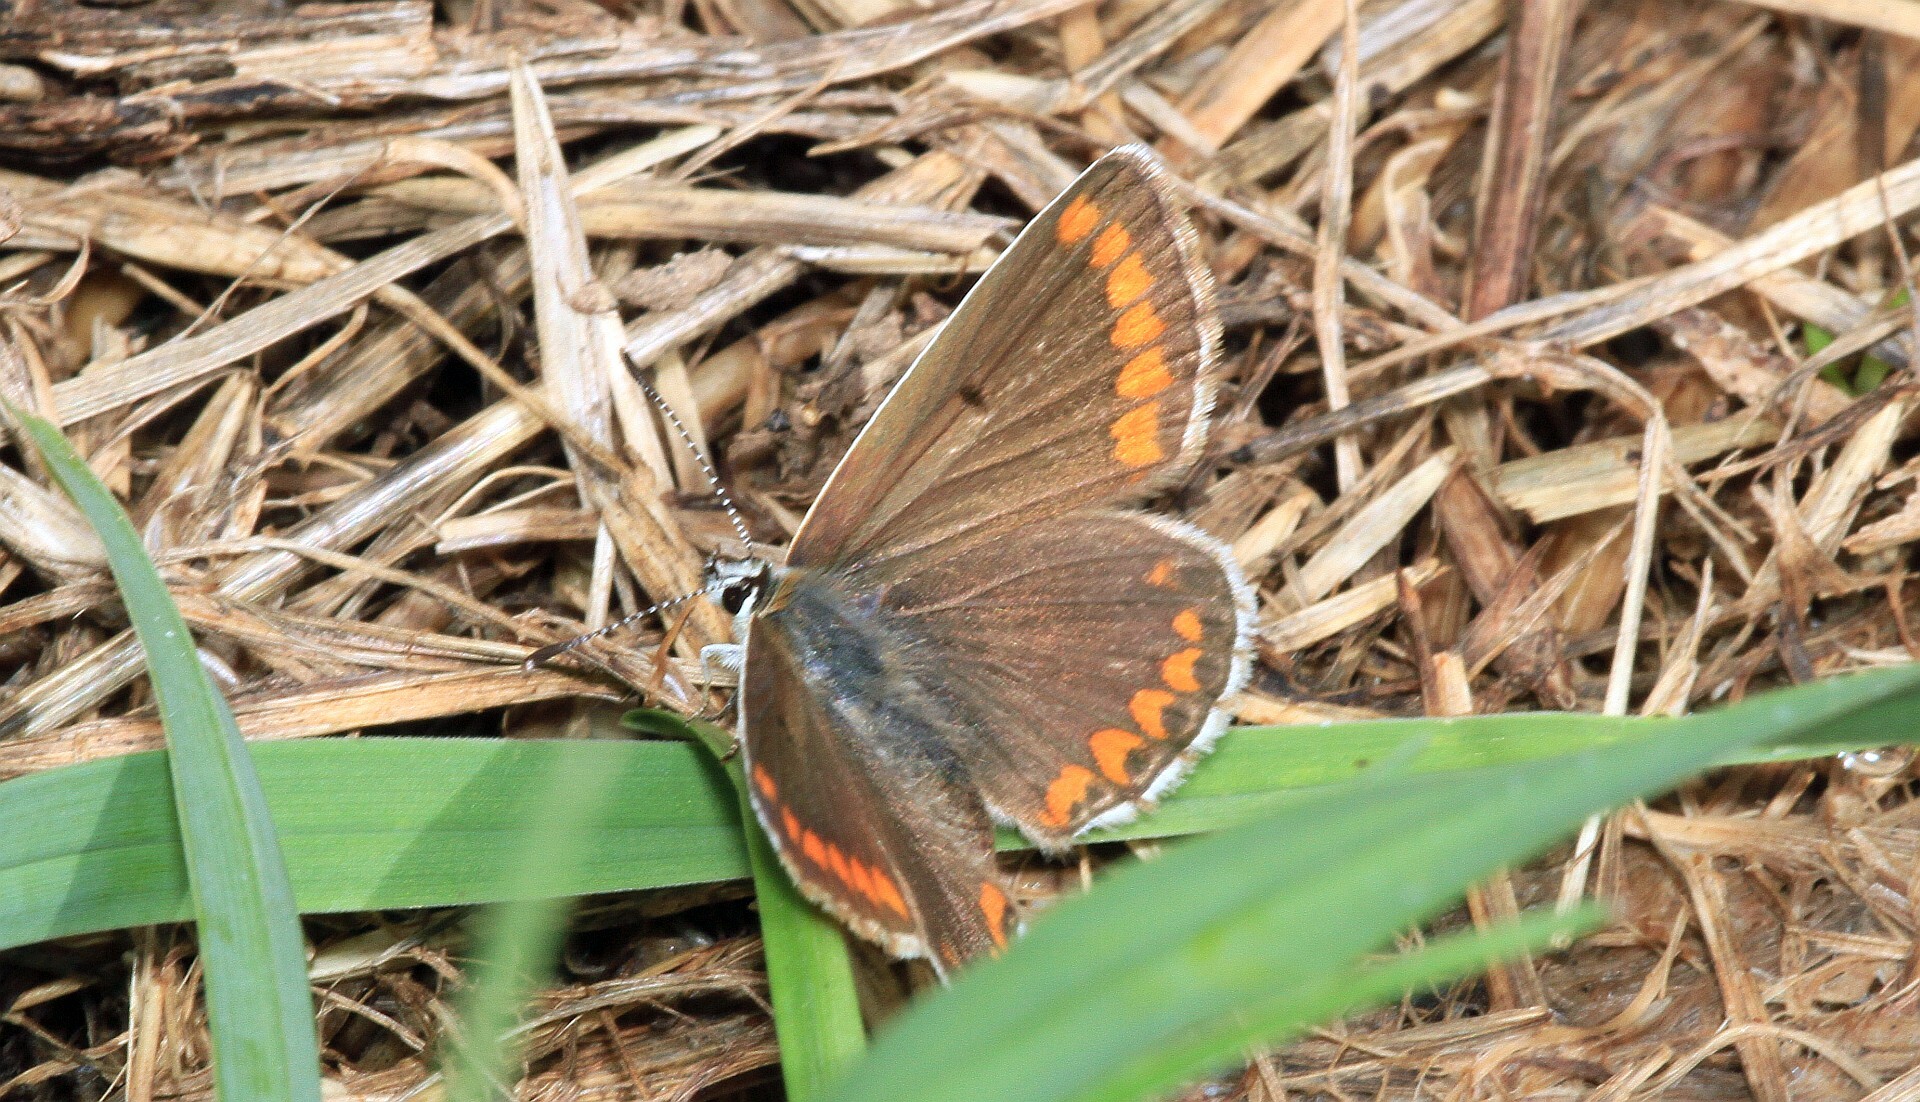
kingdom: Animalia
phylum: Arthropoda
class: Insecta
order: Lepidoptera
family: Lycaenidae
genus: Aricia
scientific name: Aricia agestis
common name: Brown argus
